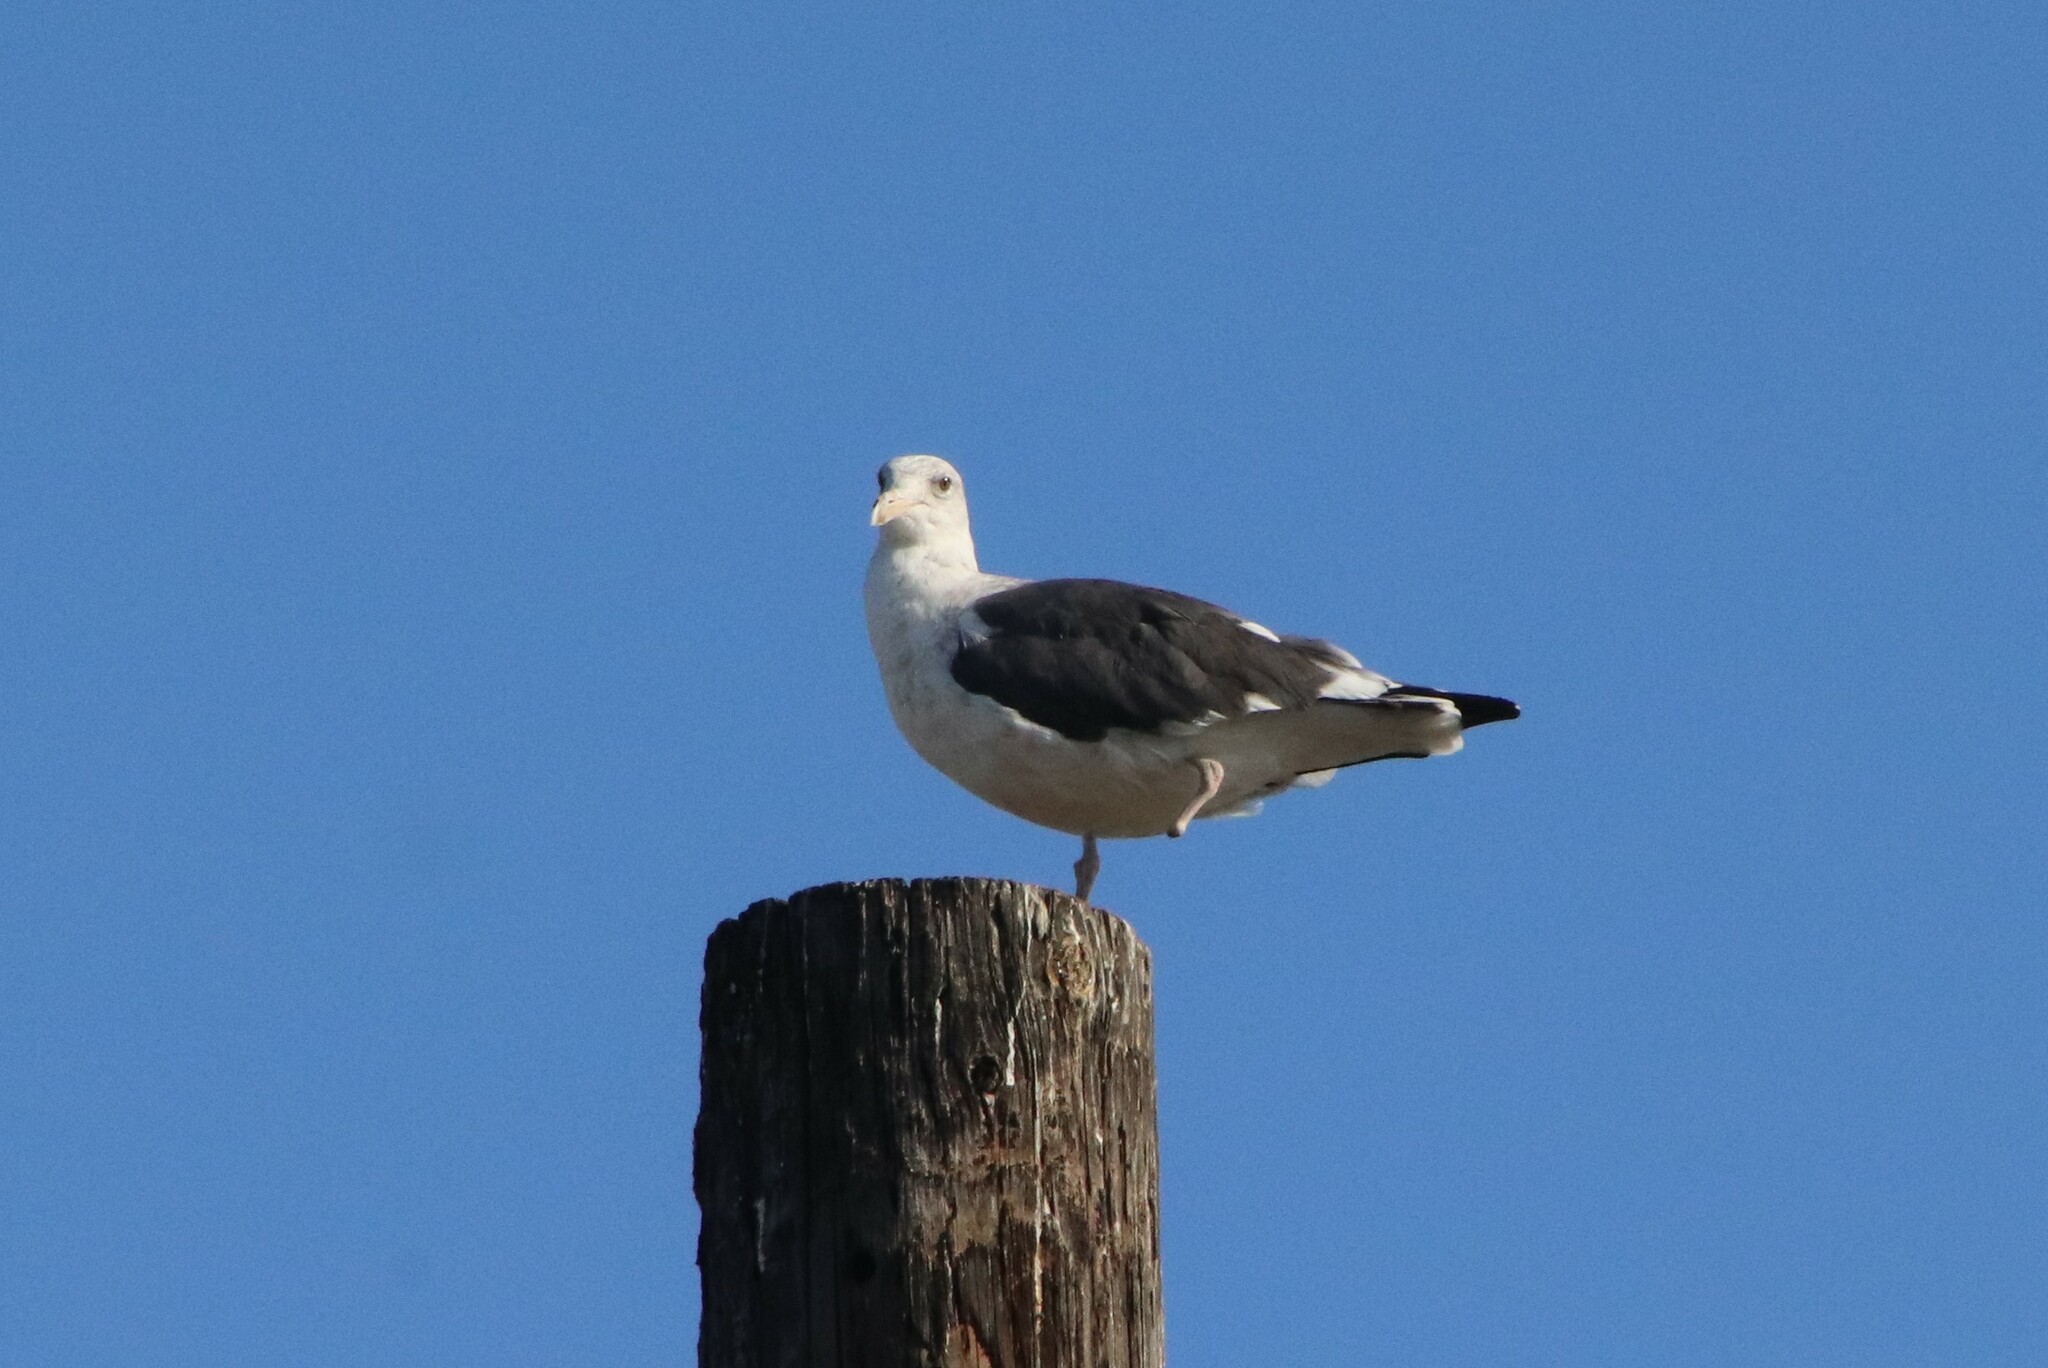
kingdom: Animalia
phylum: Chordata
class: Aves
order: Charadriiformes
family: Laridae
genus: Larus
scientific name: Larus occidentalis
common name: Western gull
